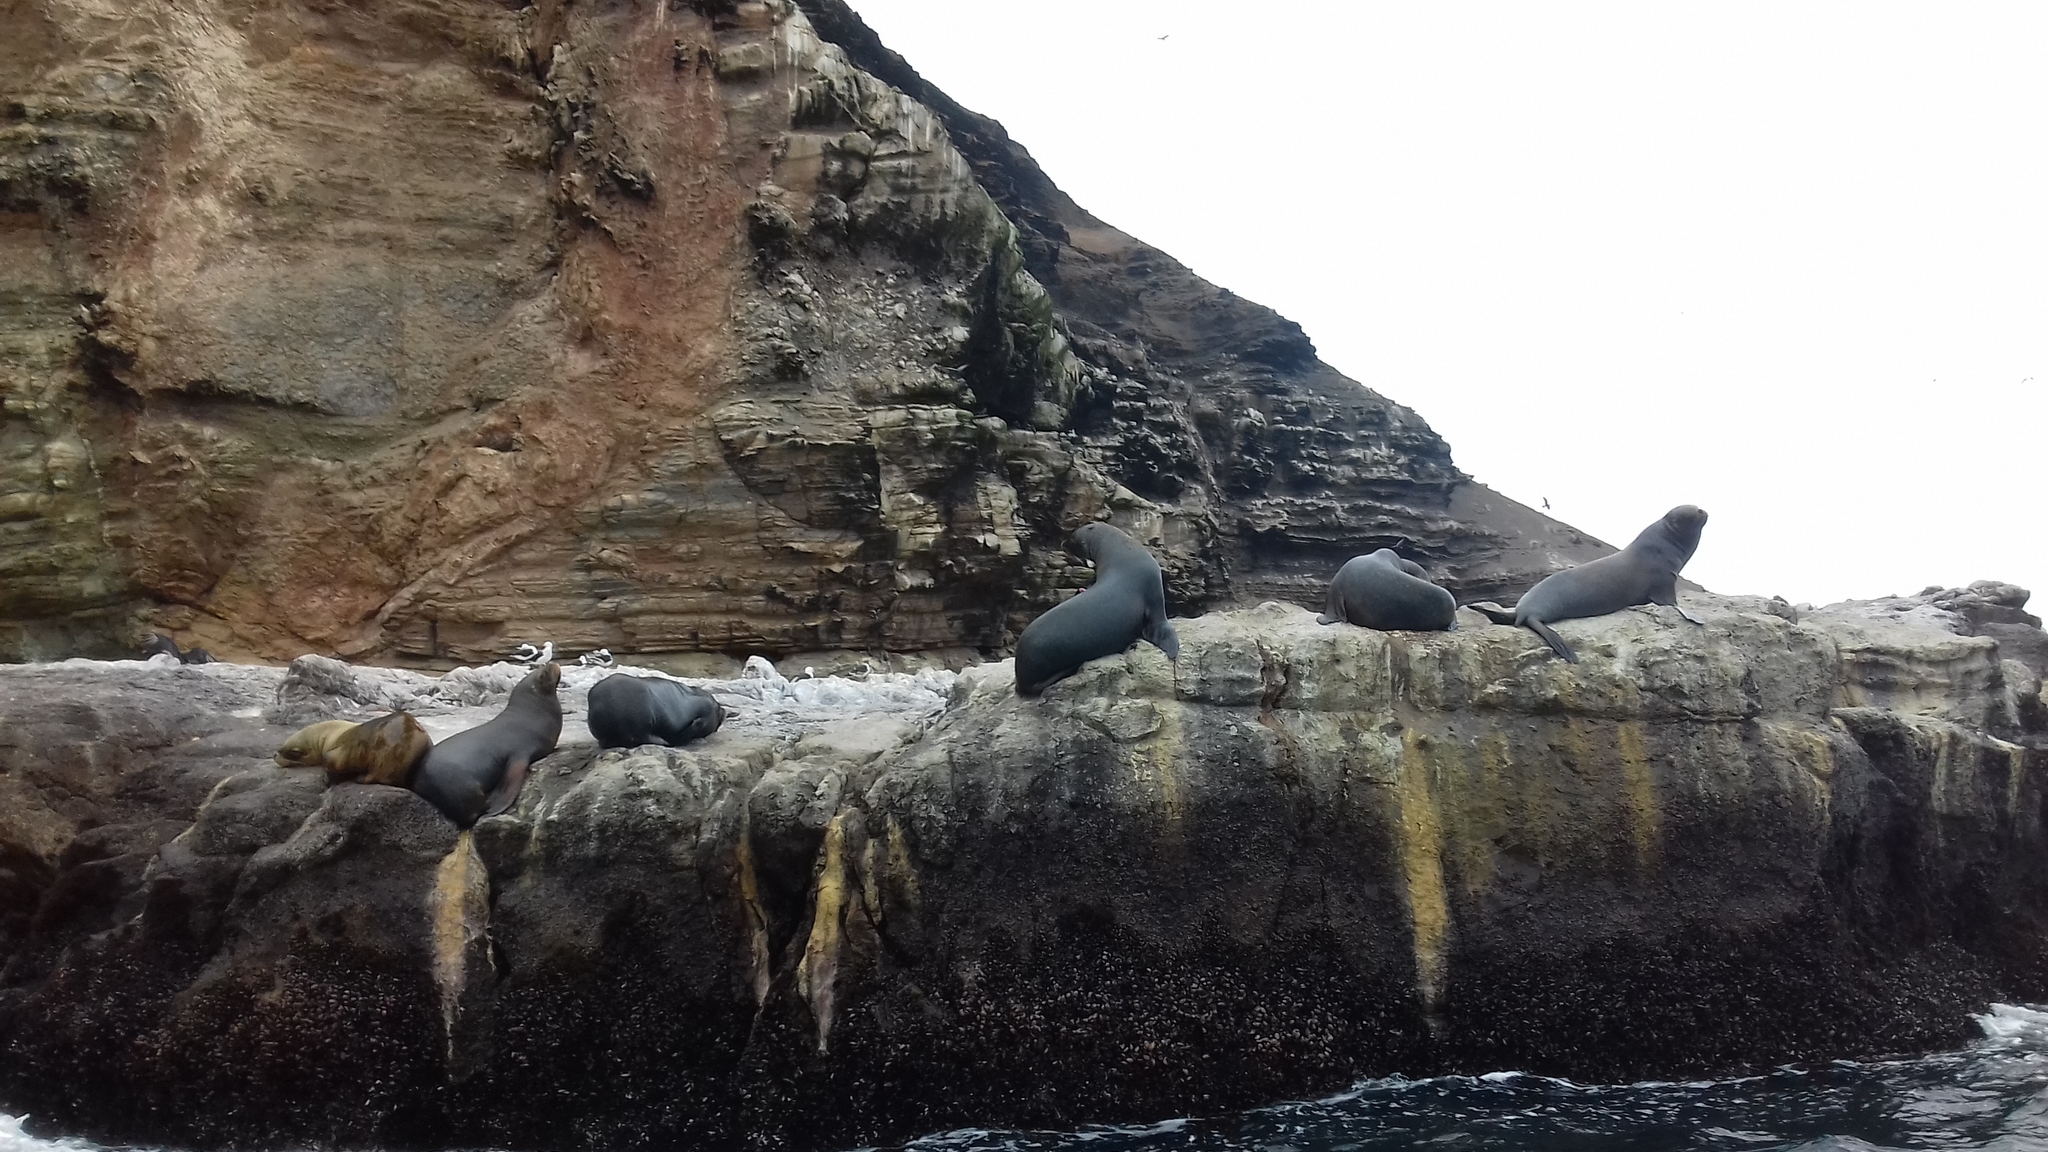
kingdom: Animalia
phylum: Chordata
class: Mammalia
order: Carnivora
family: Otariidae
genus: Otaria
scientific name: Otaria byronia
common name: South american sea lion
